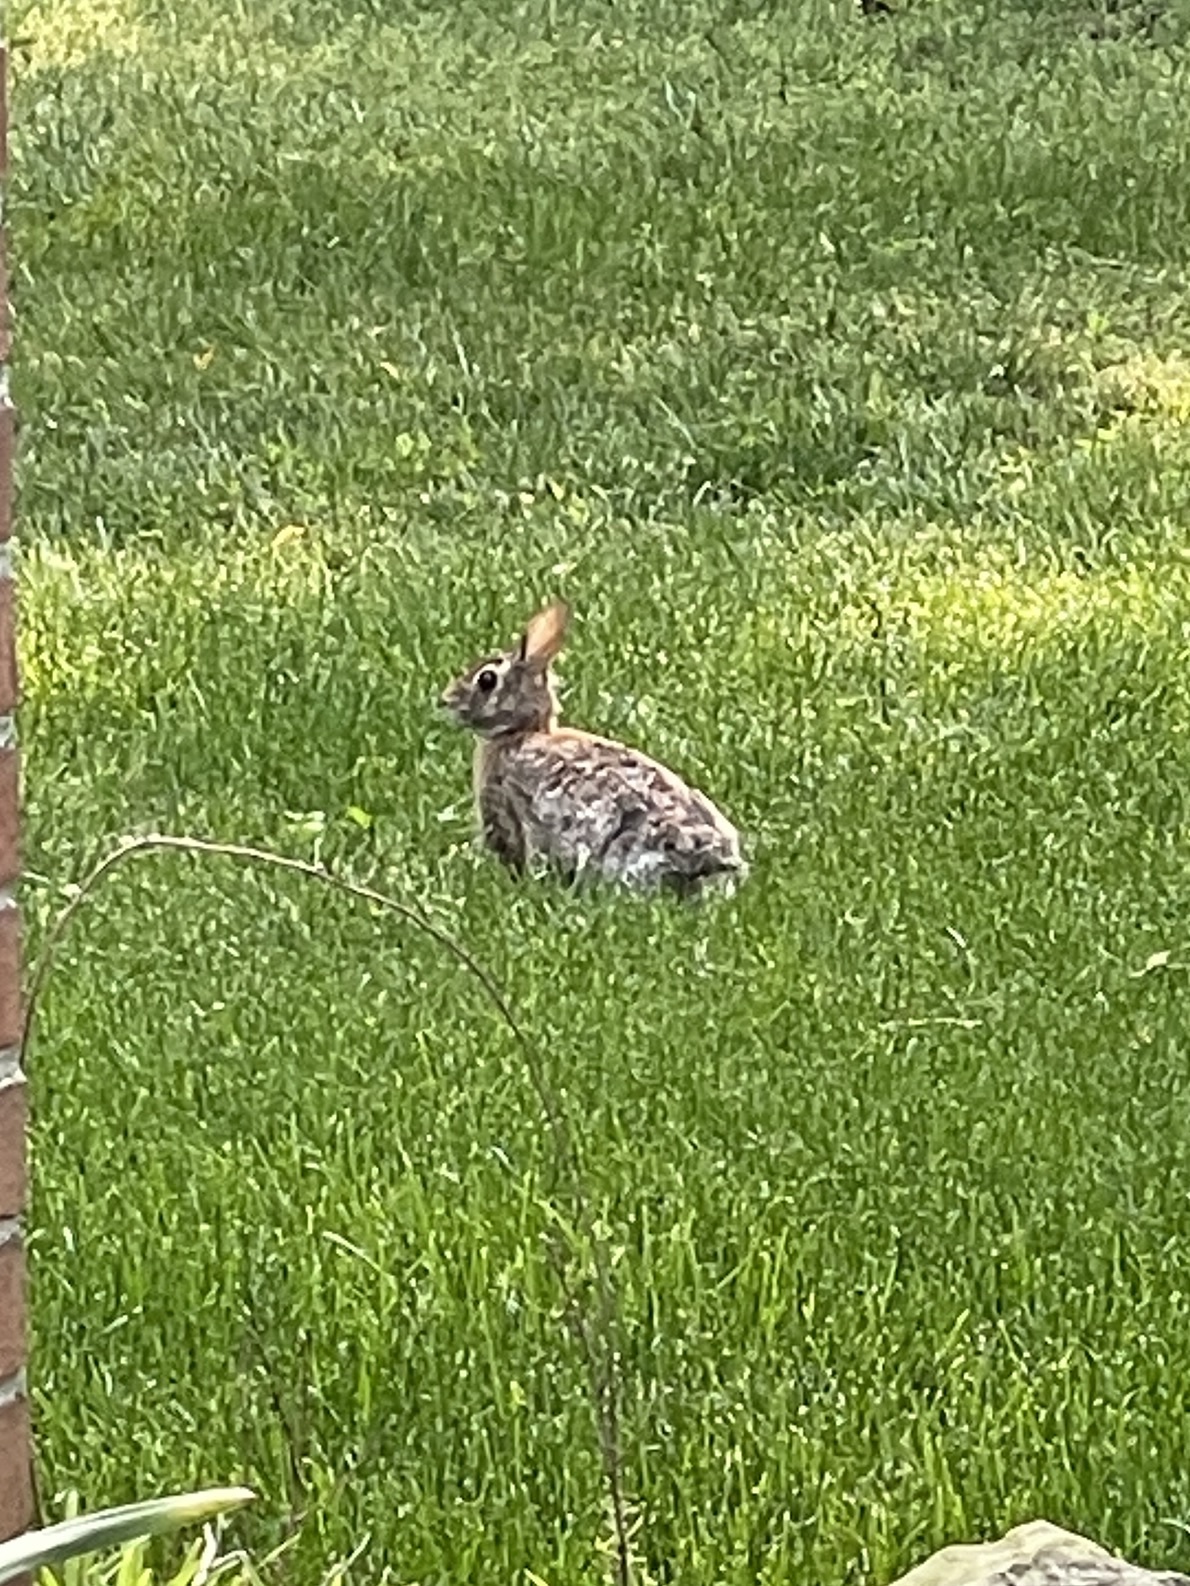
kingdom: Animalia
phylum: Chordata
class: Mammalia
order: Lagomorpha
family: Leporidae
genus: Sylvilagus
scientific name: Sylvilagus floridanus
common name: Eastern cottontail
